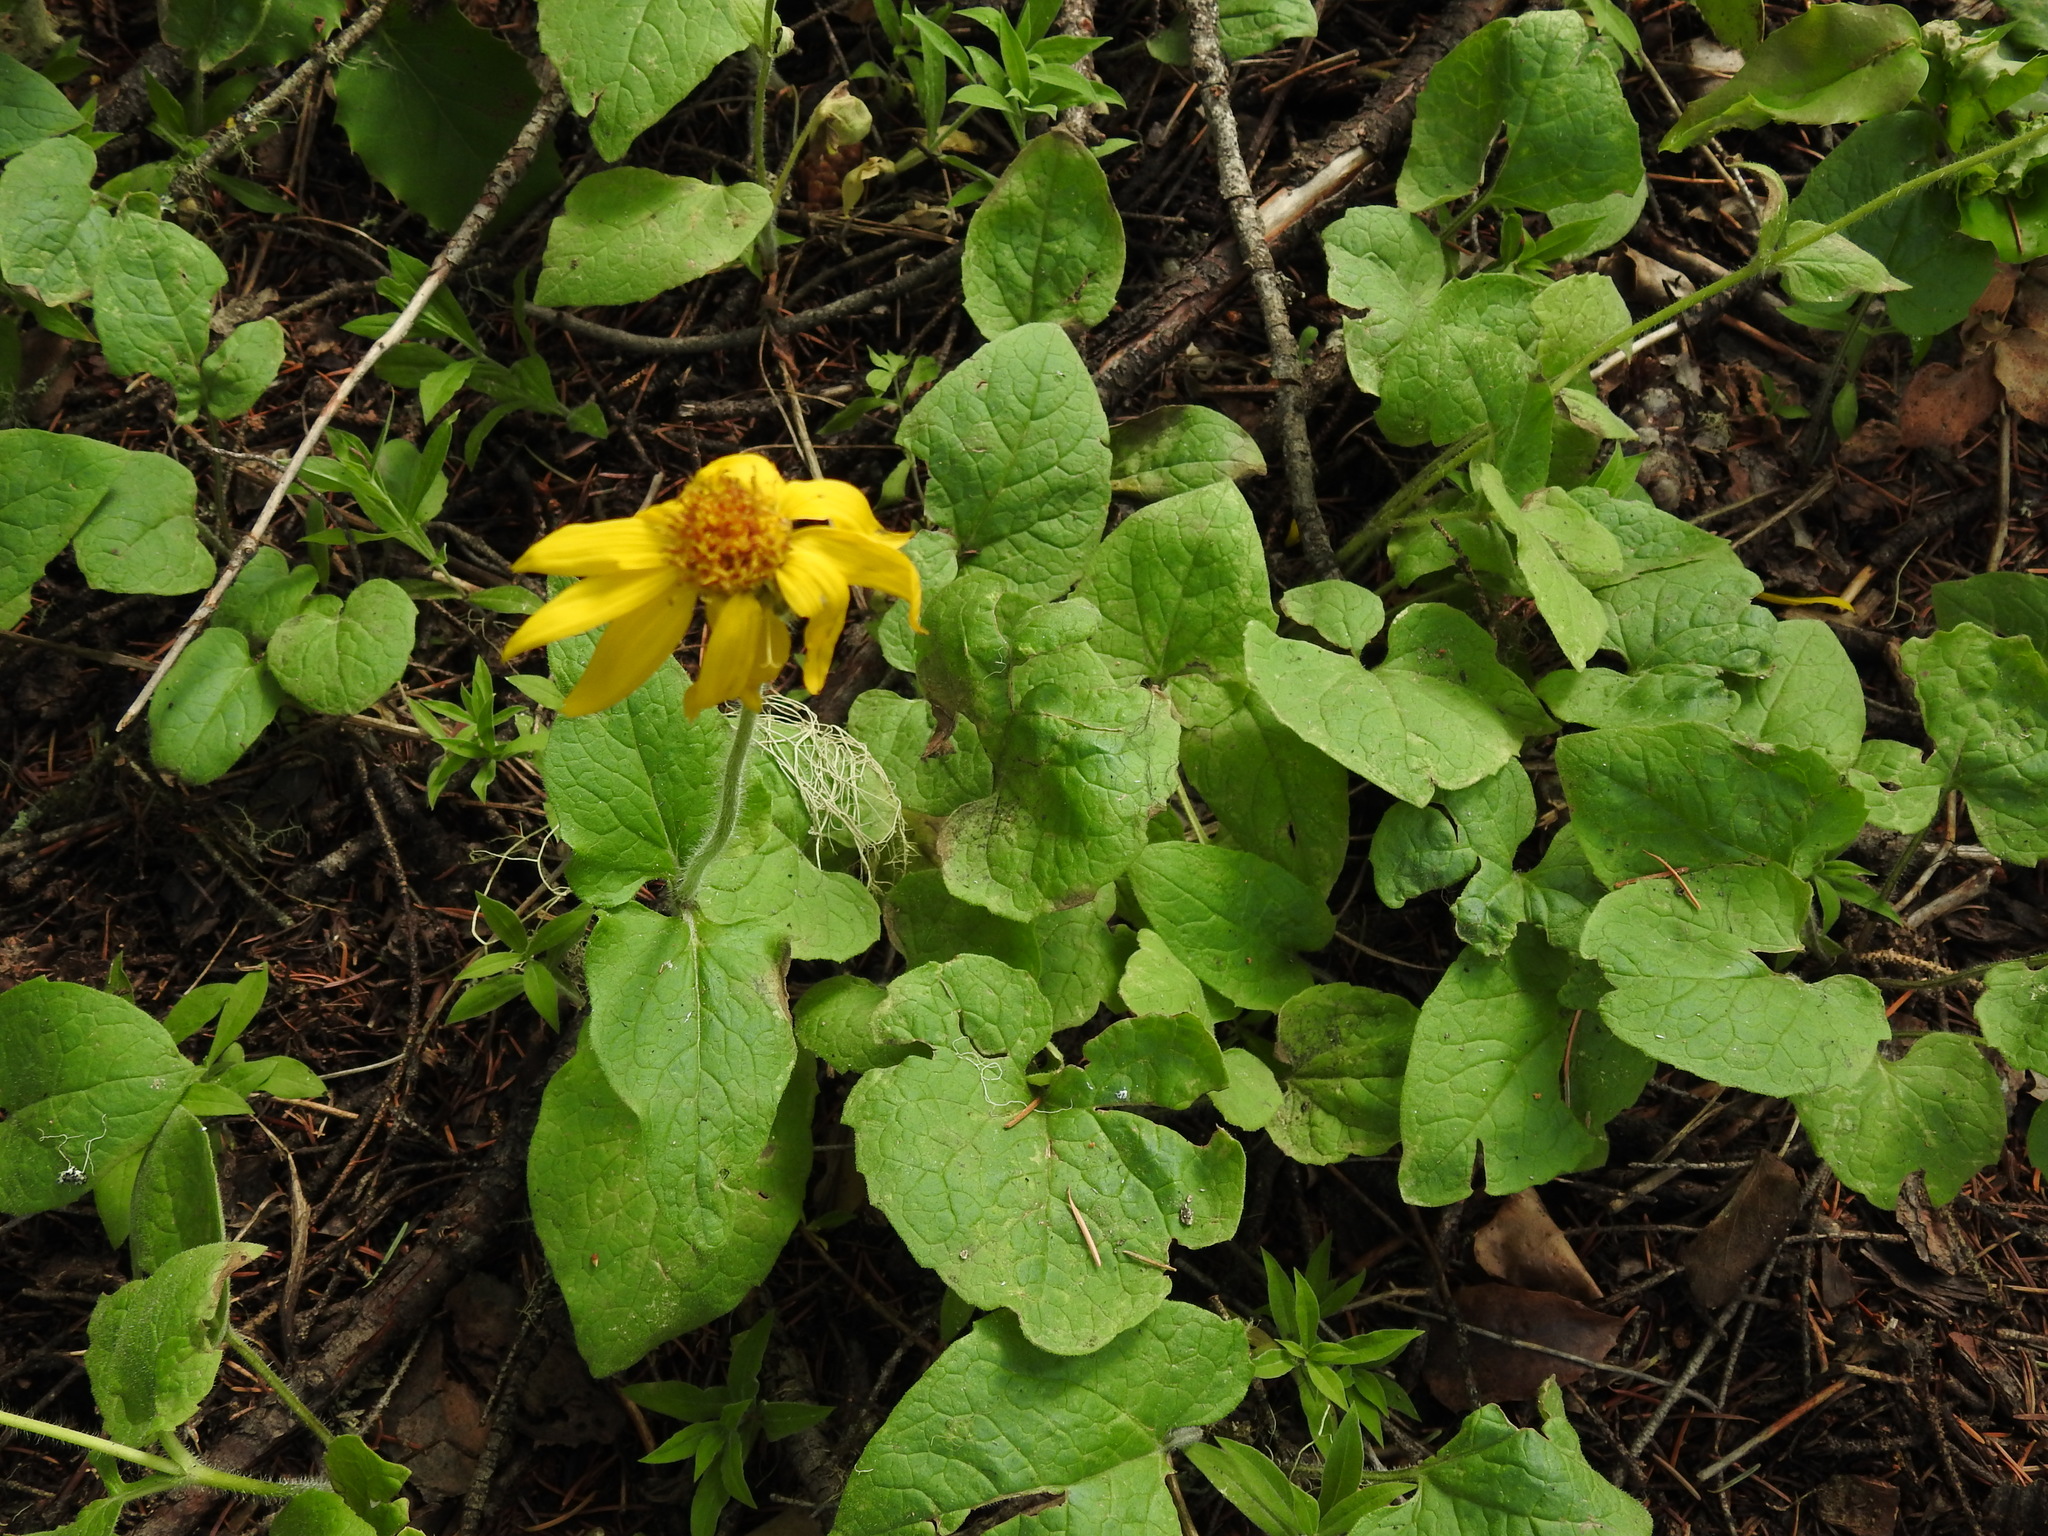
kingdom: Plantae
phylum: Tracheophyta
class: Magnoliopsida
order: Asterales
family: Asteraceae
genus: Arnica
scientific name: Arnica cordifolia
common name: Heart-leaf arnica
